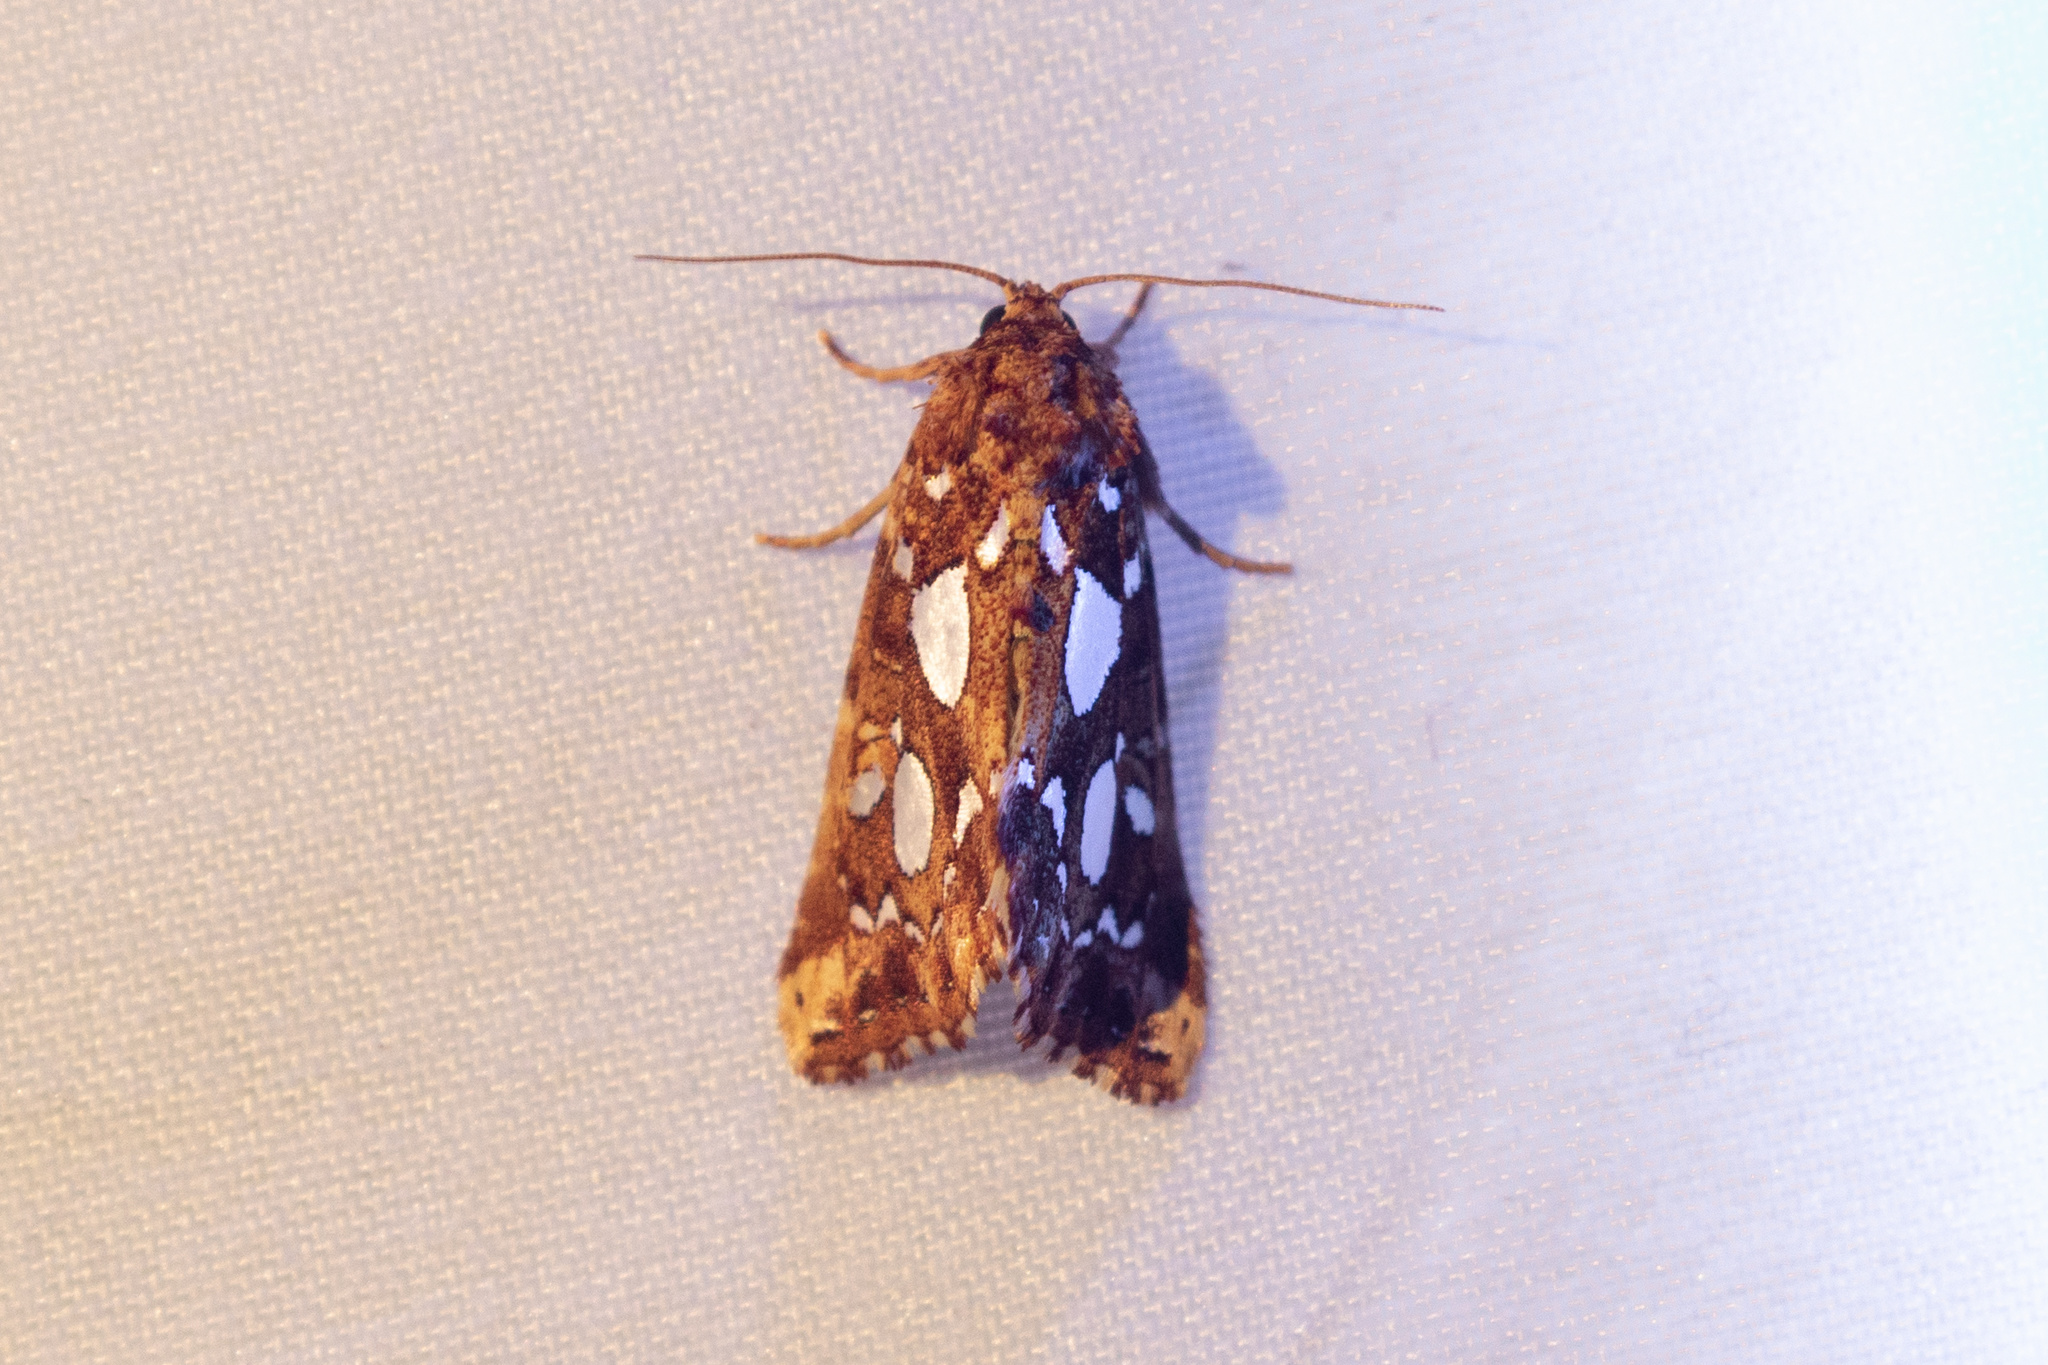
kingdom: Animalia
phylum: Arthropoda
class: Insecta
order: Lepidoptera
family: Noctuidae
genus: Callopistria
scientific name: Callopistria cordata
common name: Silver-spotted fern moth
